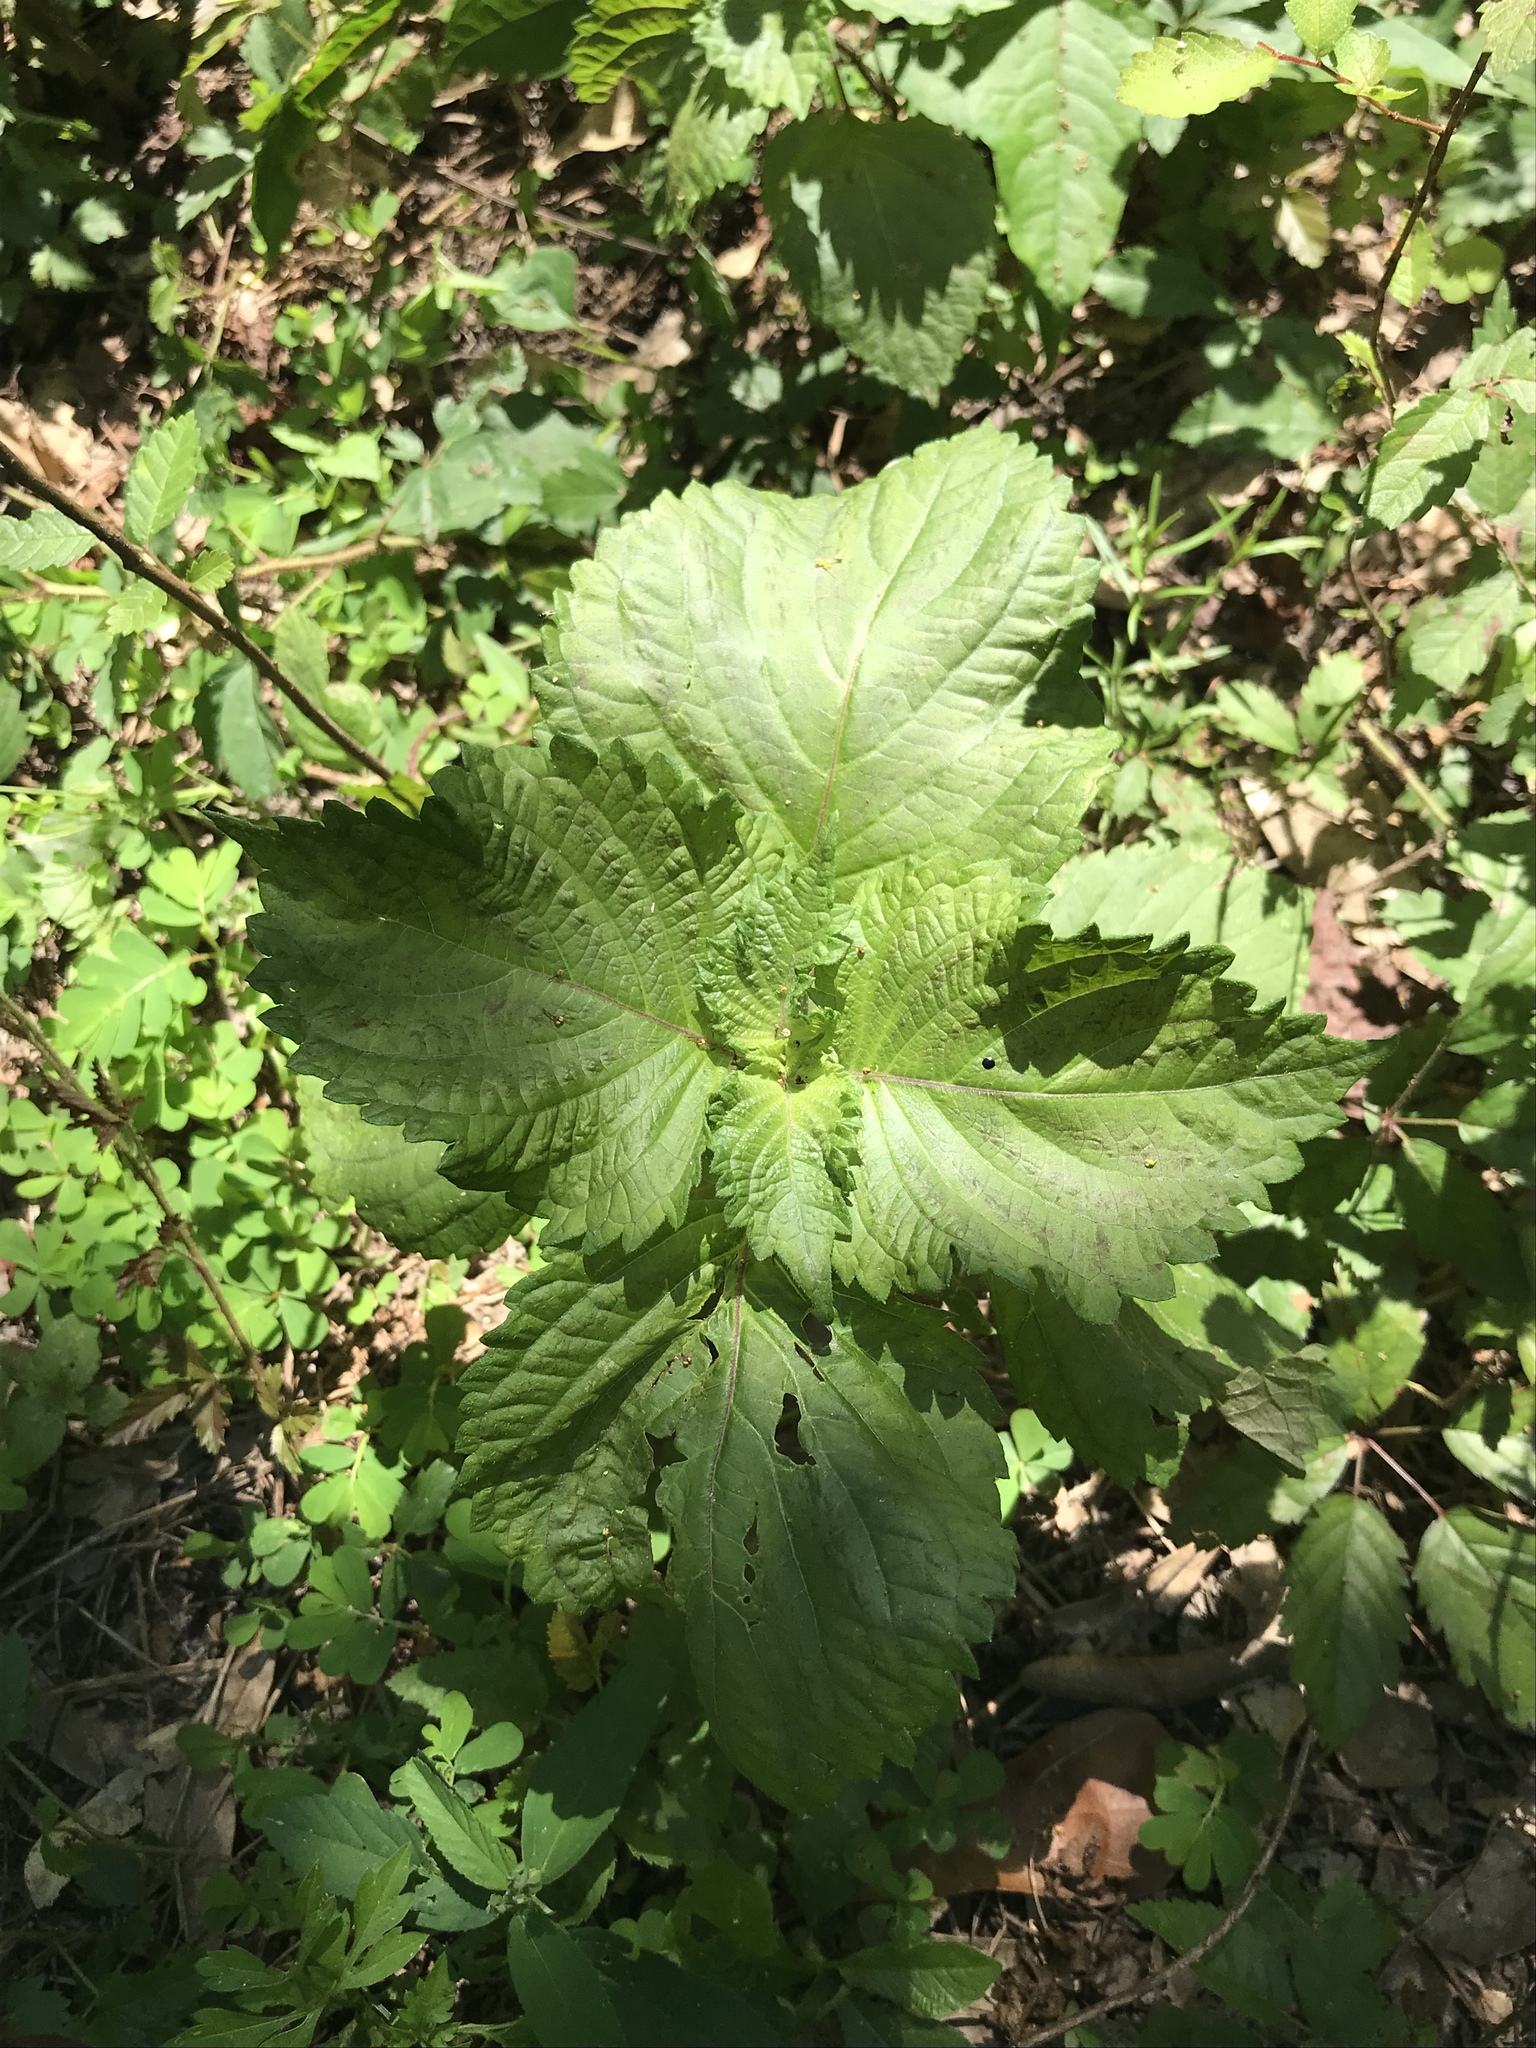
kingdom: Plantae
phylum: Tracheophyta
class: Magnoliopsida
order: Lamiales
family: Lamiaceae
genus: Perilla
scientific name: Perilla frutescens
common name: Perilla
